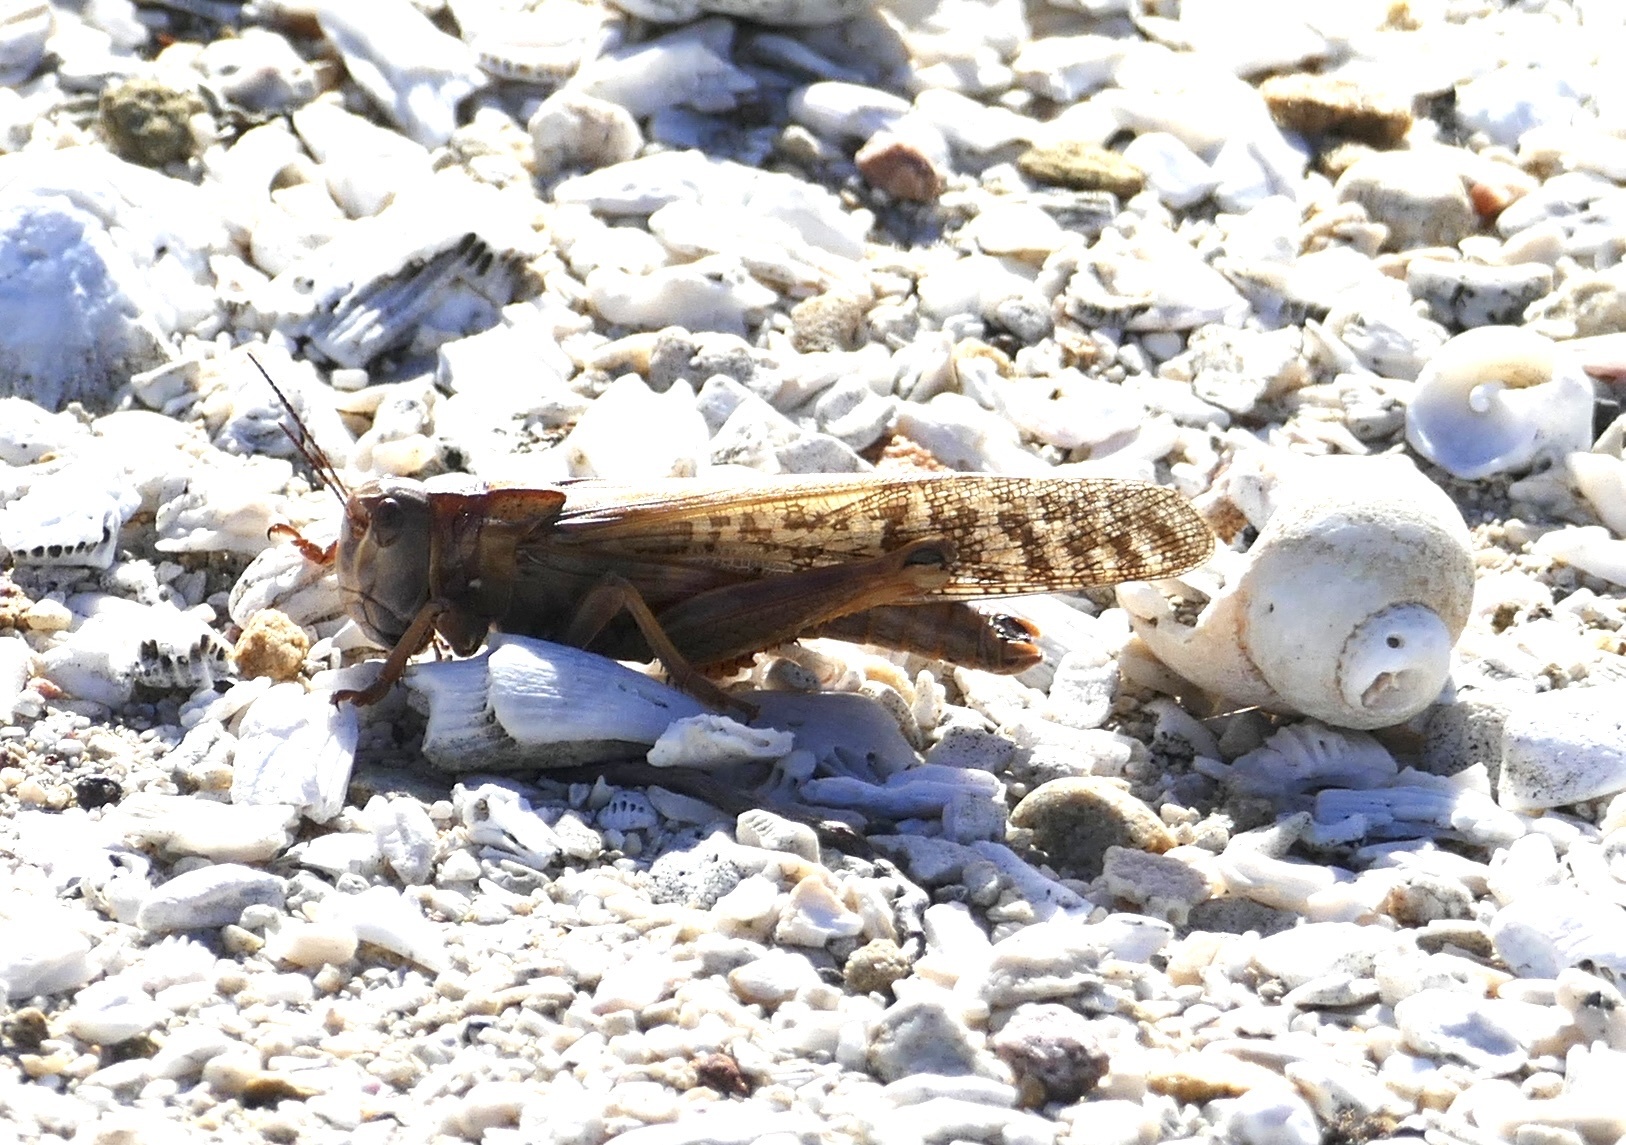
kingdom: Animalia
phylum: Arthropoda
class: Insecta
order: Orthoptera
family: Acrididae
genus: Locustana
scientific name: Locustana pardalina
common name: Brown locust
